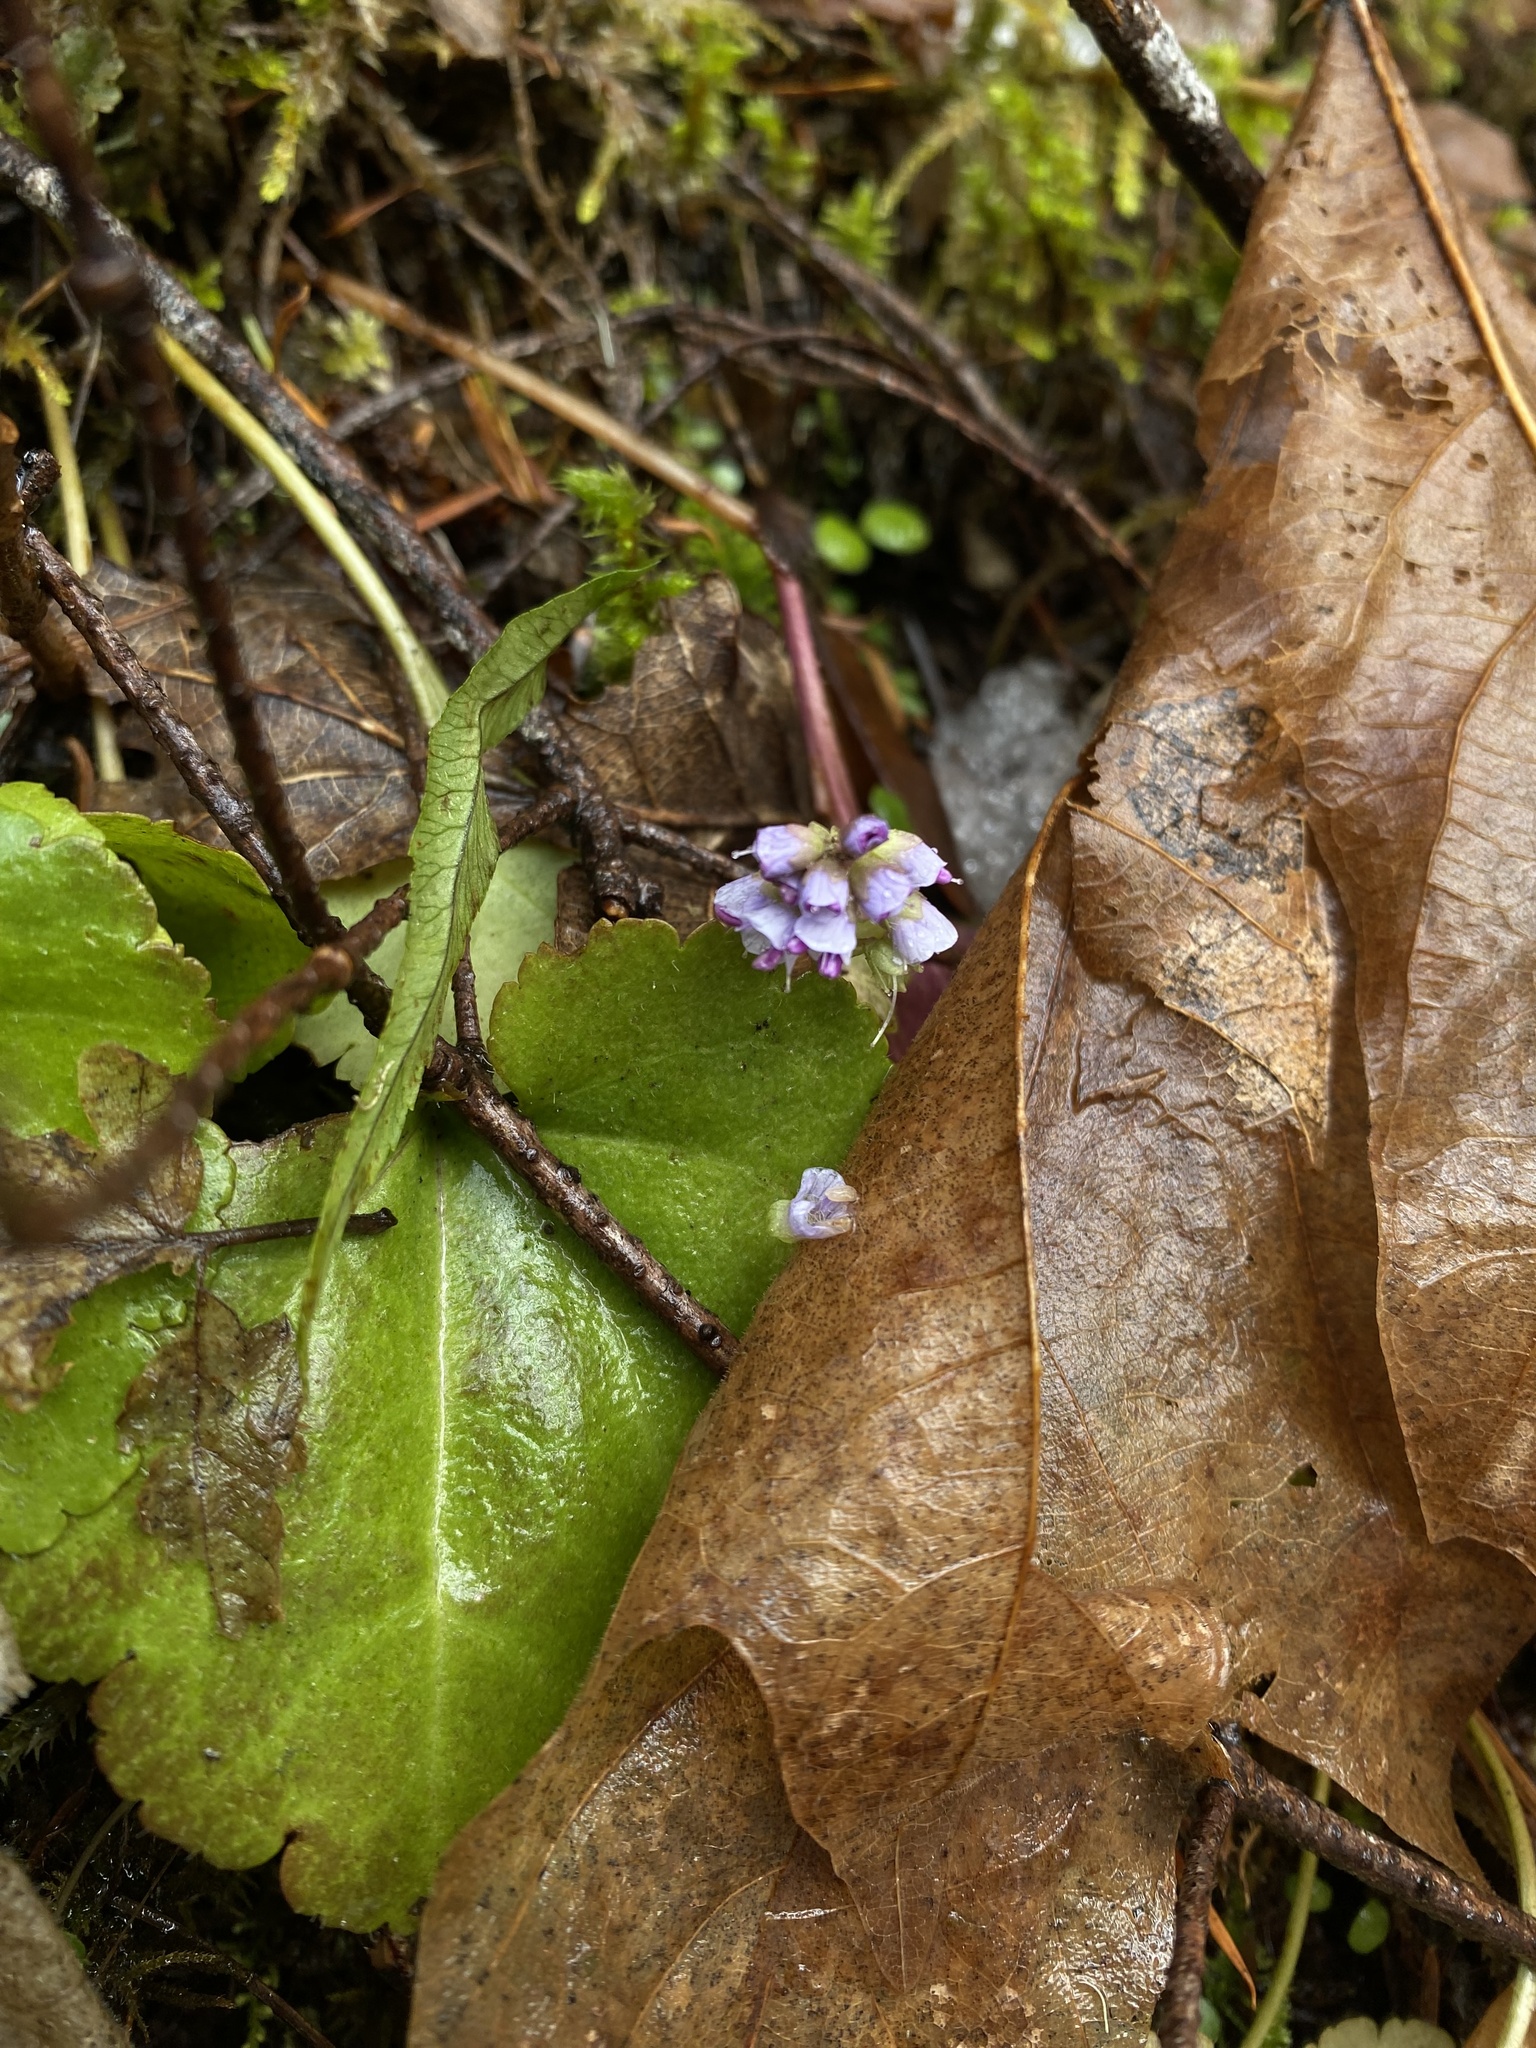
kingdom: Plantae
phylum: Tracheophyta
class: Magnoliopsida
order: Lamiales
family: Plantaginaceae
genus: Synthyris
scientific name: Synthyris reniformis
